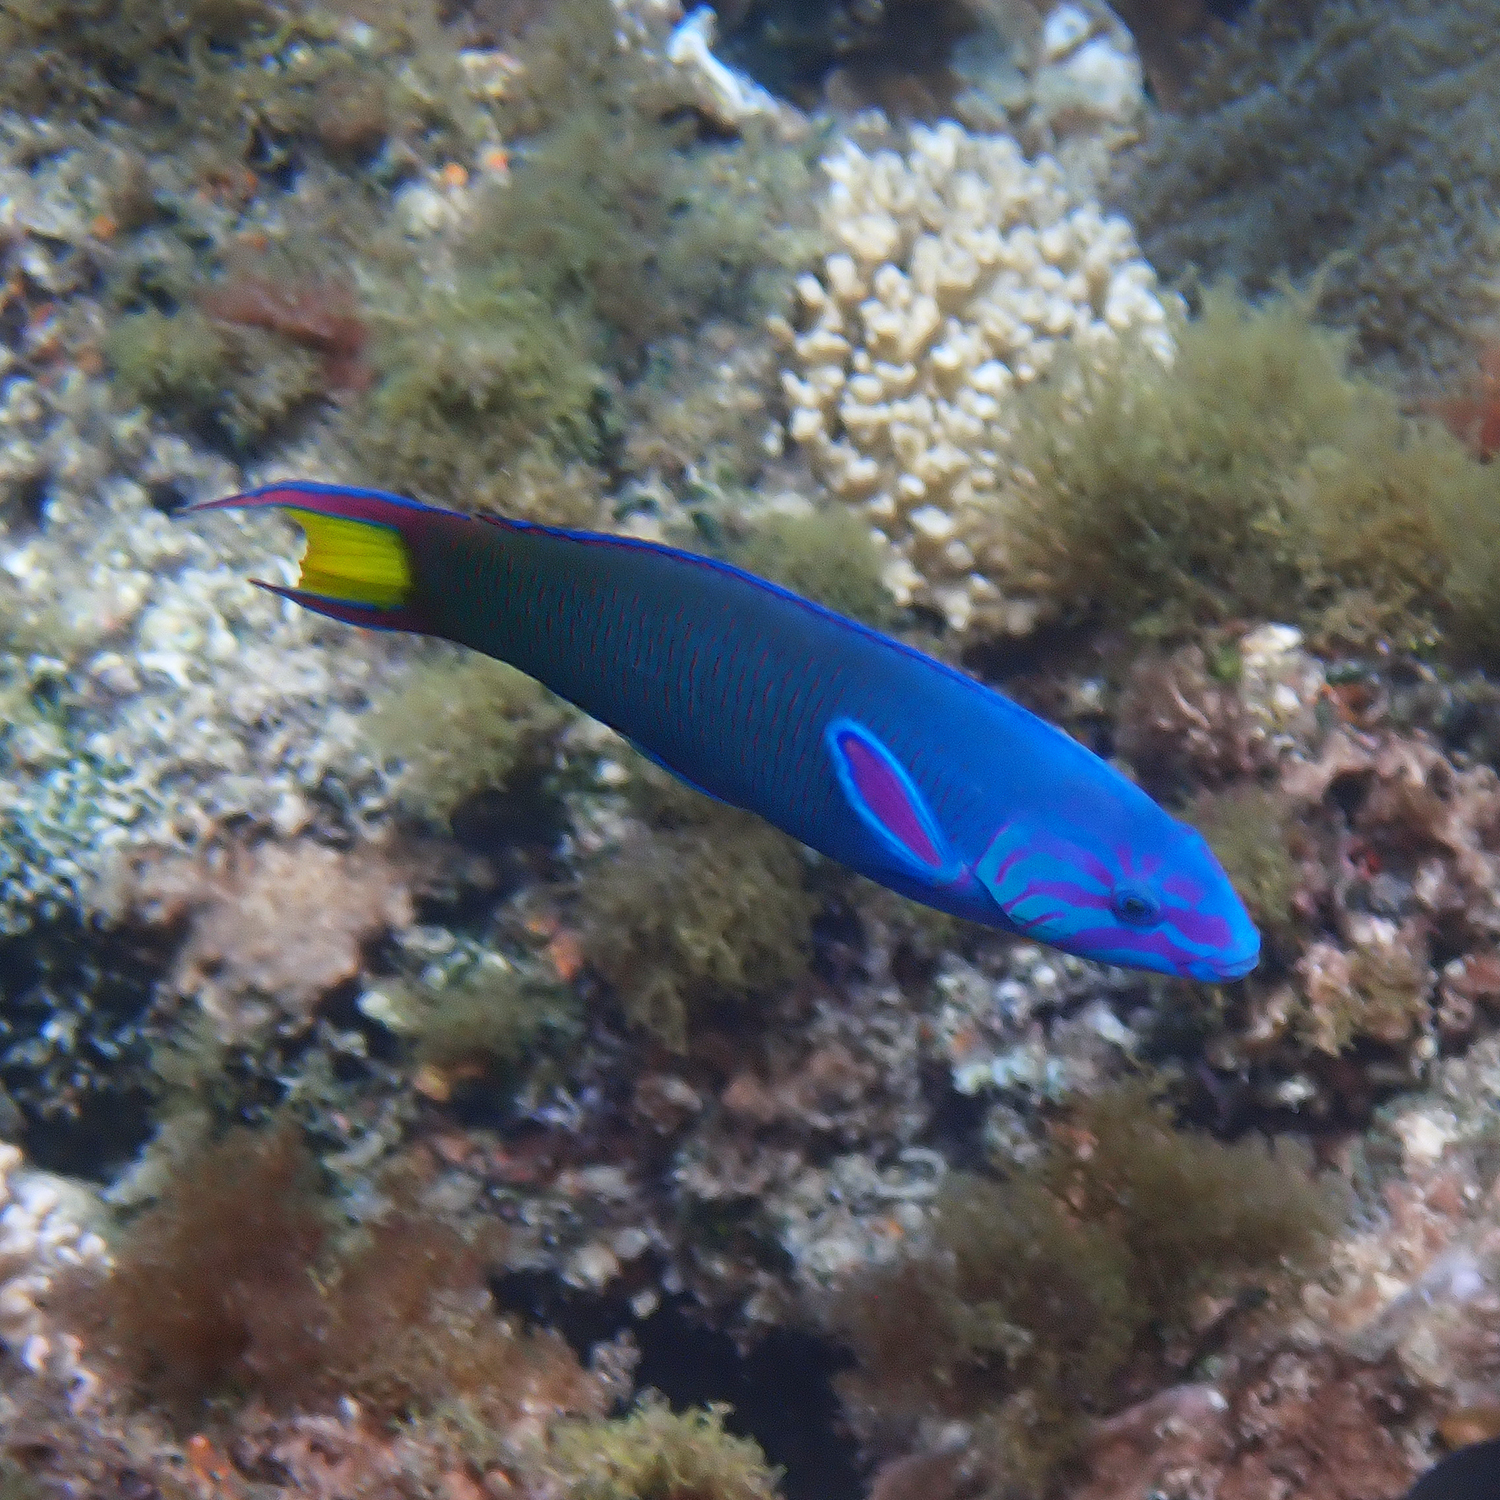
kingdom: Animalia
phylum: Chordata
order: Perciformes
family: Labridae
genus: Thalassoma
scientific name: Thalassoma lunare
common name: Blue wrasse
